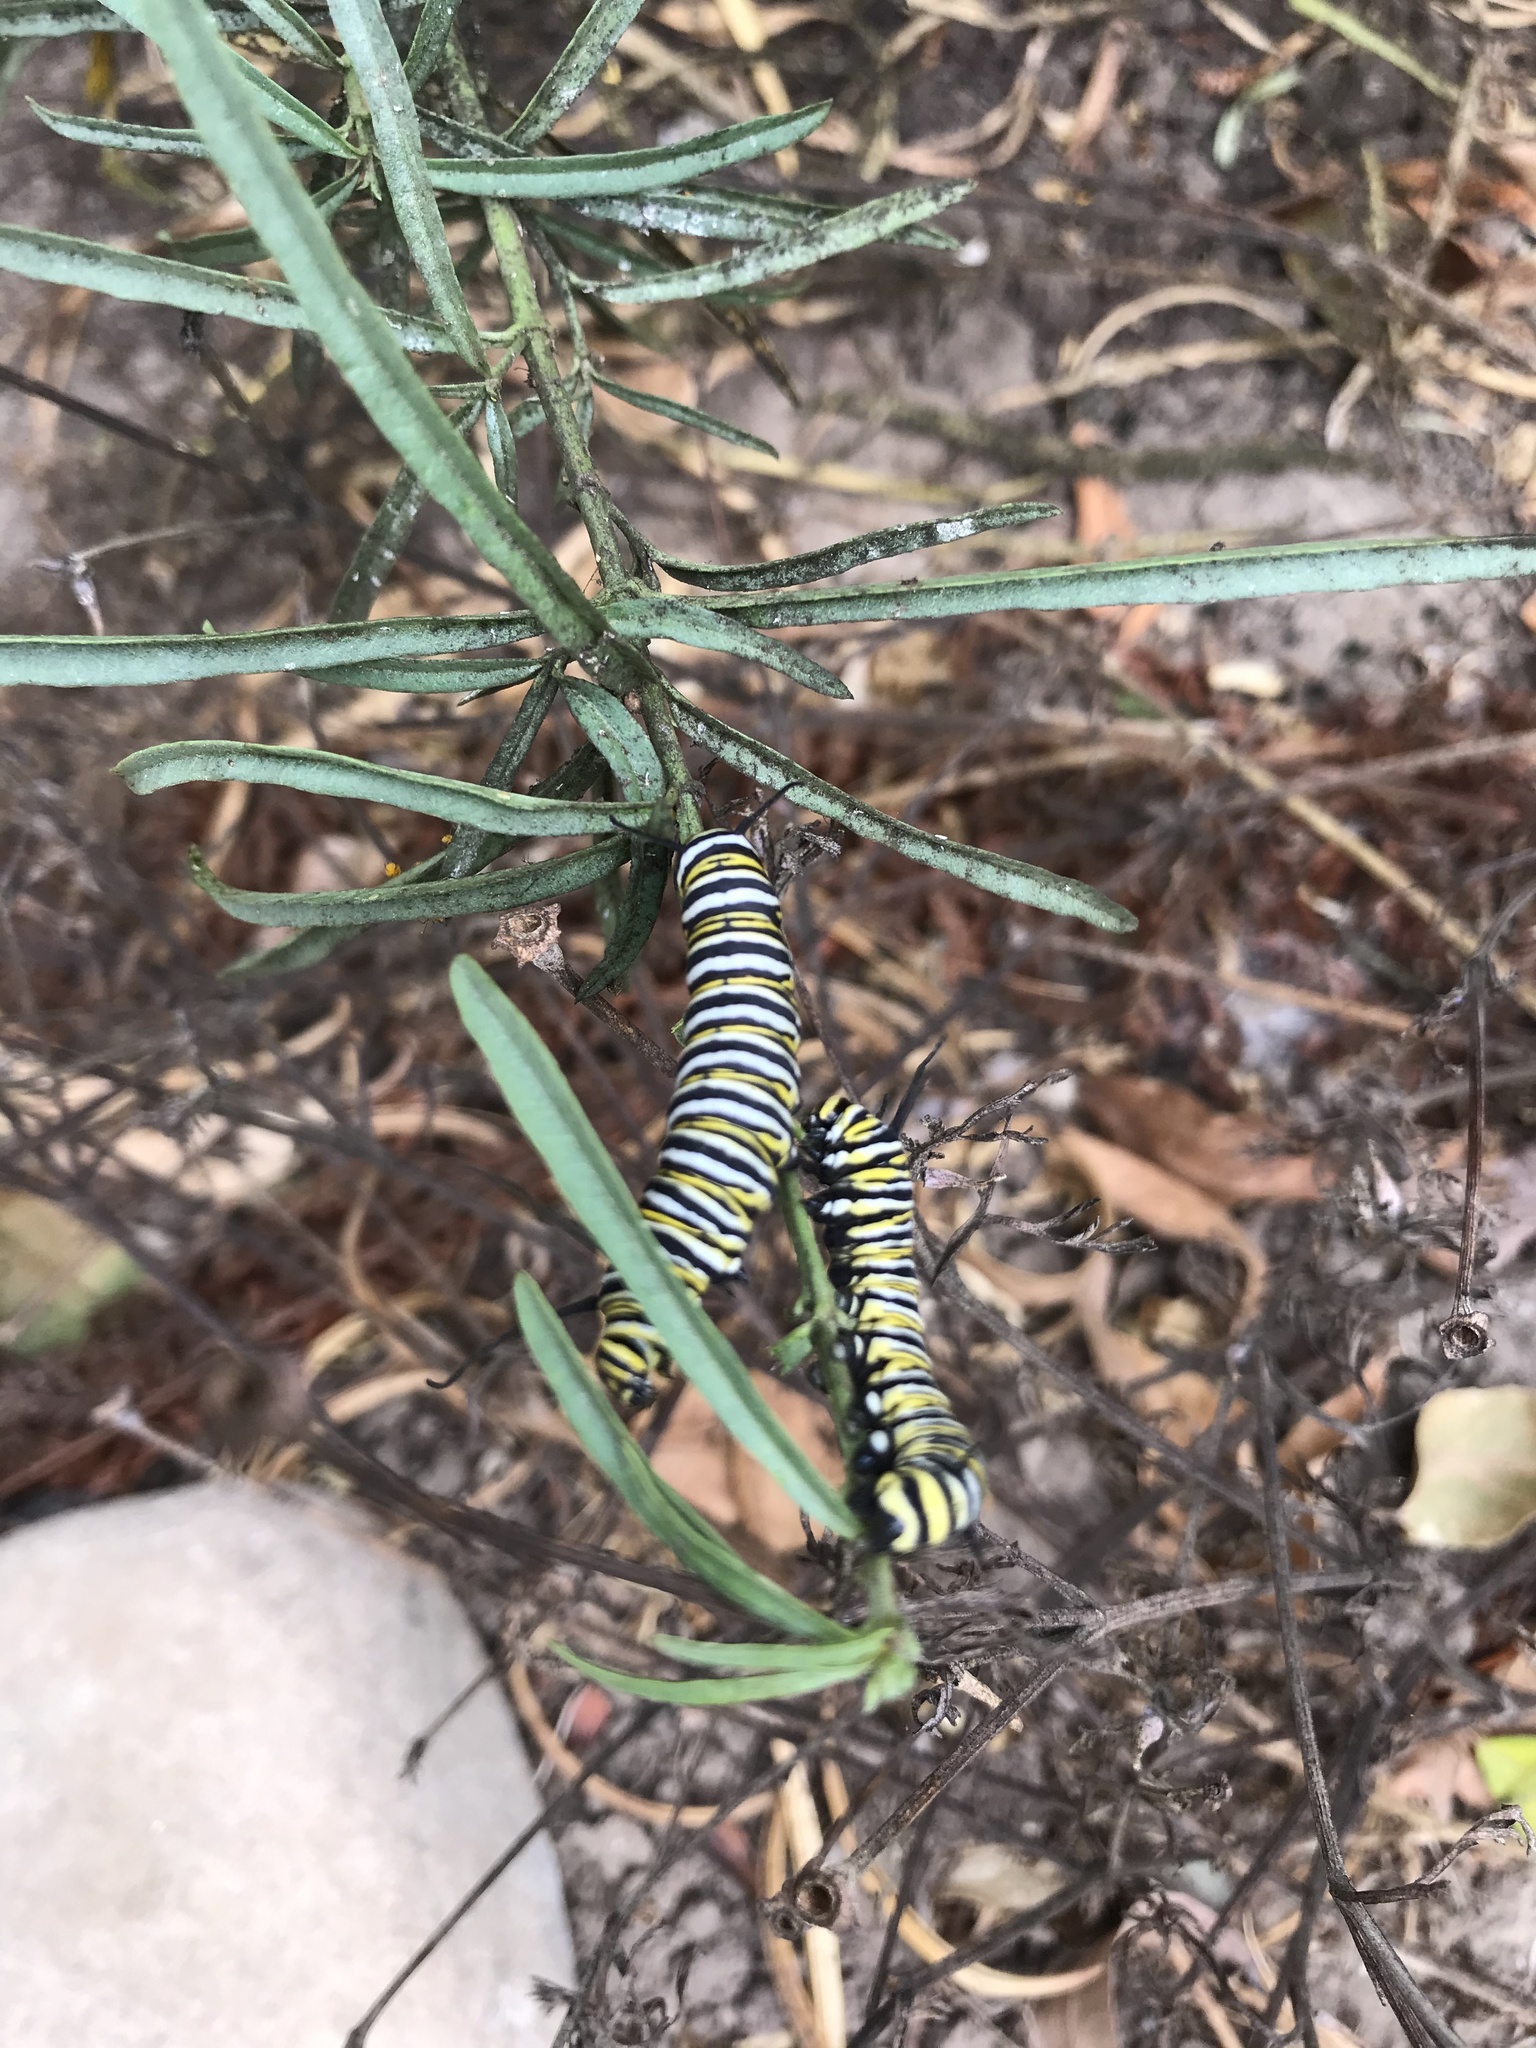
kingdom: Animalia
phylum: Arthropoda
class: Insecta
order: Lepidoptera
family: Nymphalidae
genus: Danaus
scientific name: Danaus plexippus
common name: Monarch
